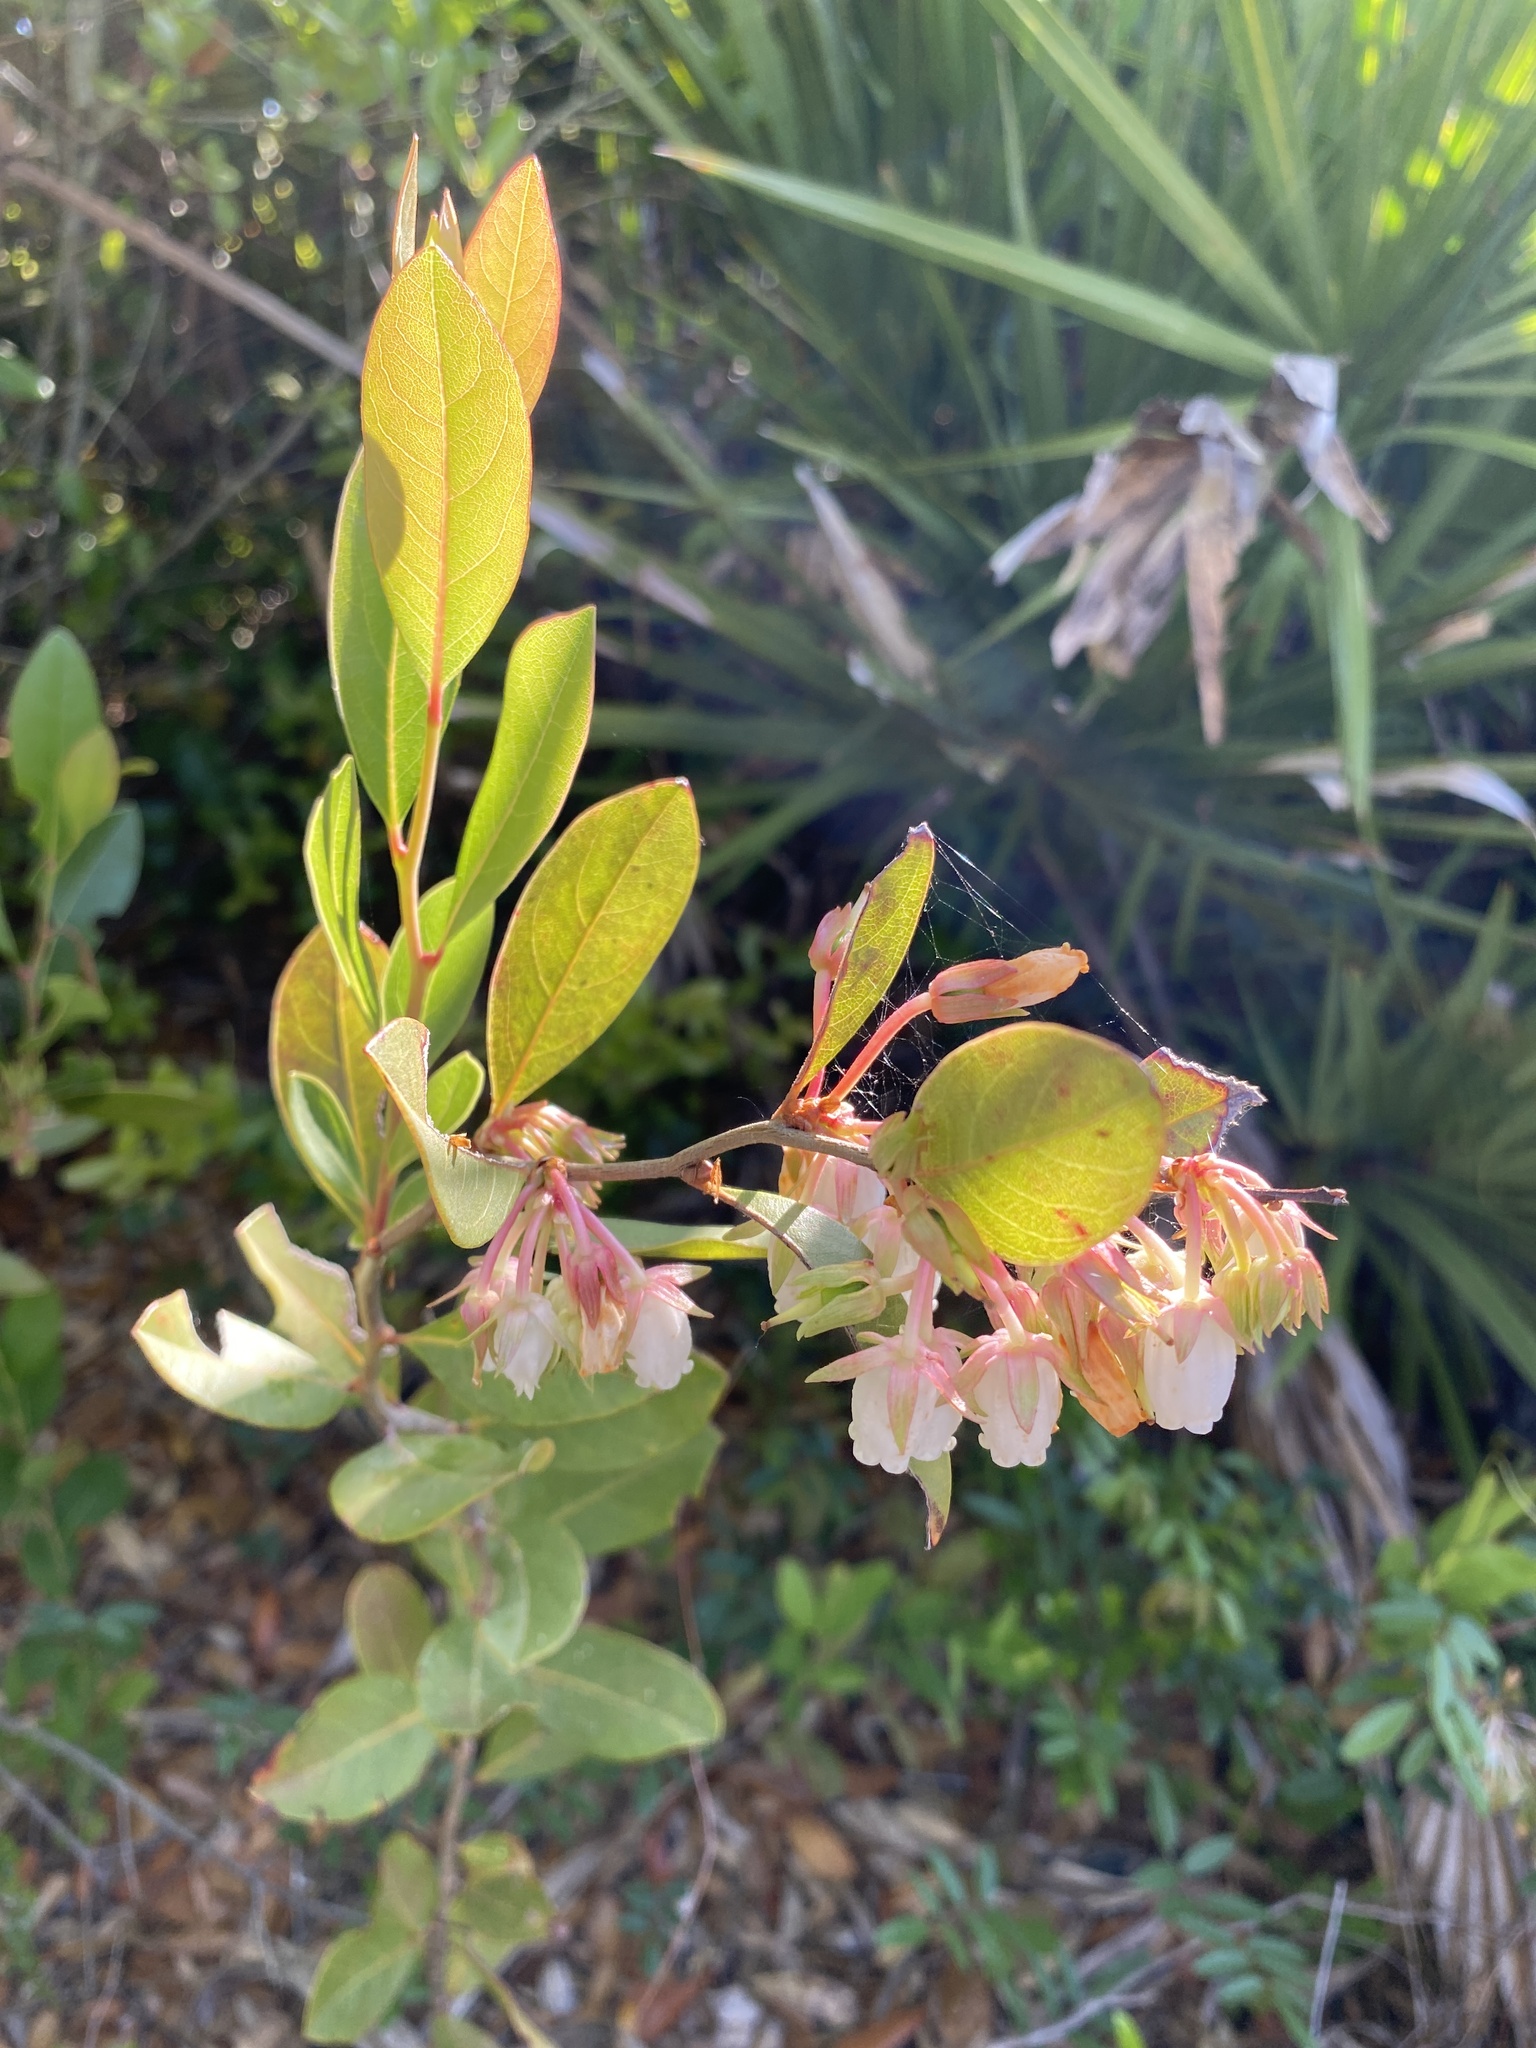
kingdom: Plantae
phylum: Tracheophyta
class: Magnoliopsida
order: Ericales
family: Ericaceae
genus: Lyonia
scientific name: Lyonia mariana
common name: Staggerbush
